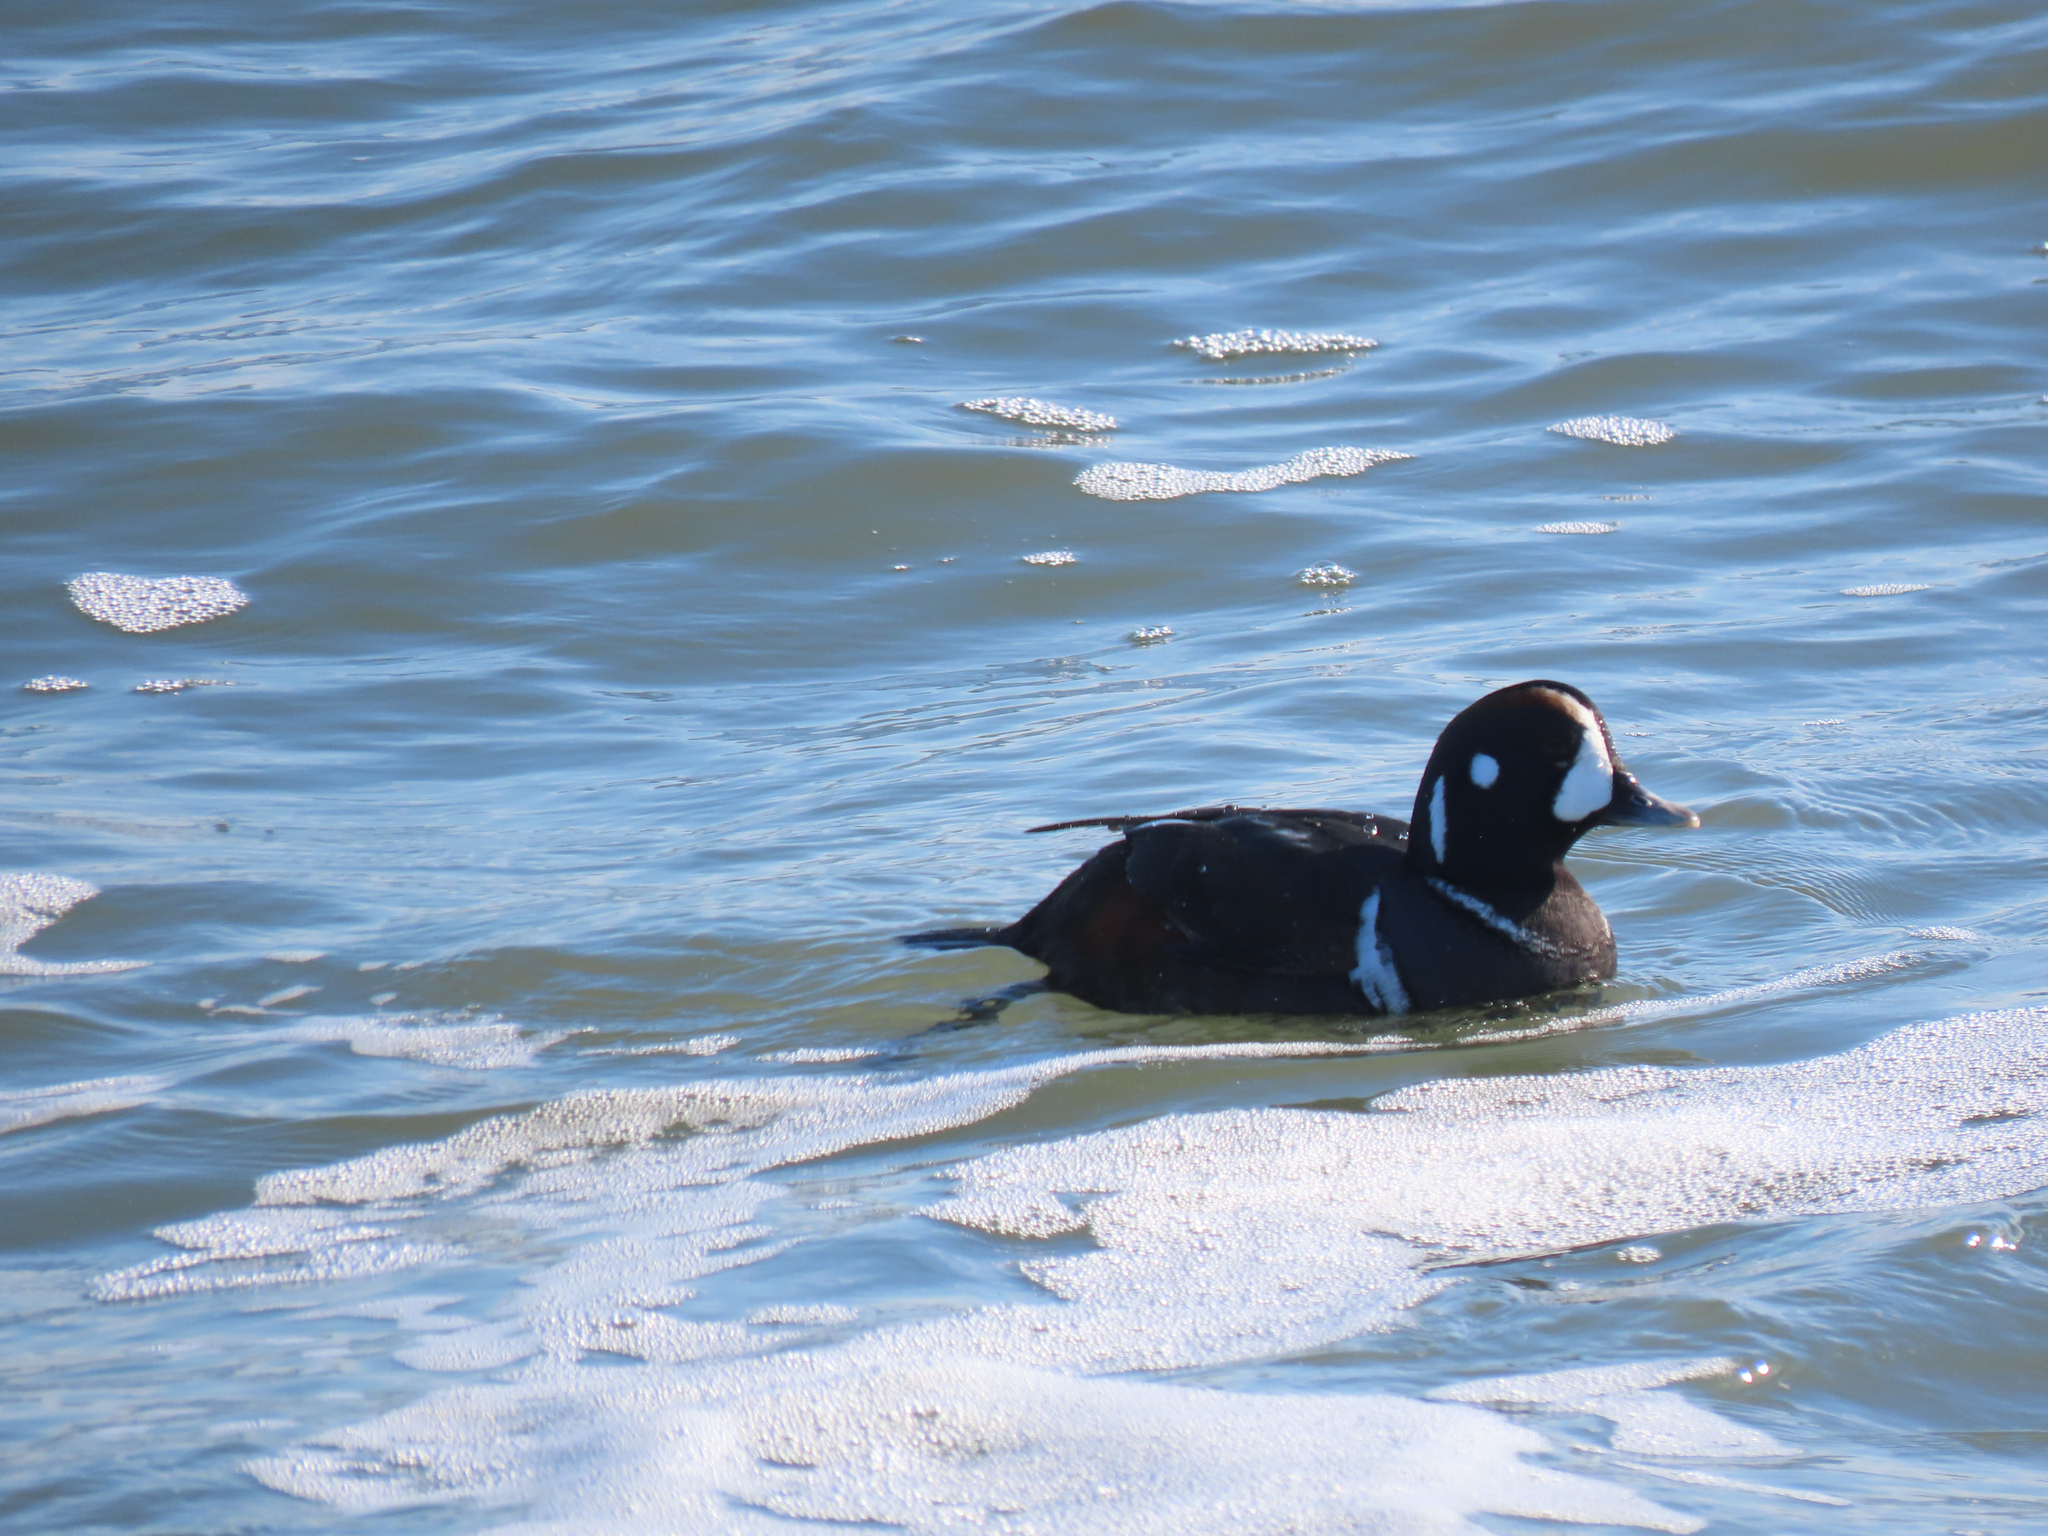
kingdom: Animalia
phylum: Chordata
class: Aves
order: Anseriformes
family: Anatidae
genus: Histrionicus
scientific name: Histrionicus histrionicus
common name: Harlequin duck
